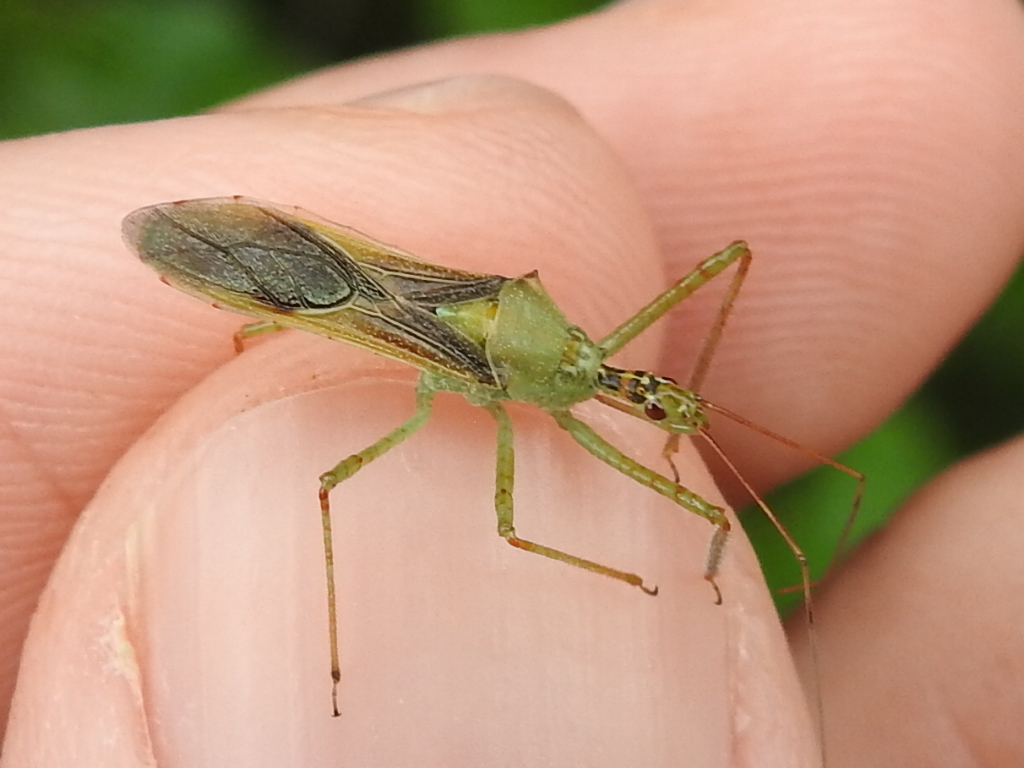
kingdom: Animalia
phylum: Arthropoda
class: Insecta
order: Hemiptera
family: Reduviidae
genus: Zelus
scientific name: Zelus renardii
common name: Assassin bug
